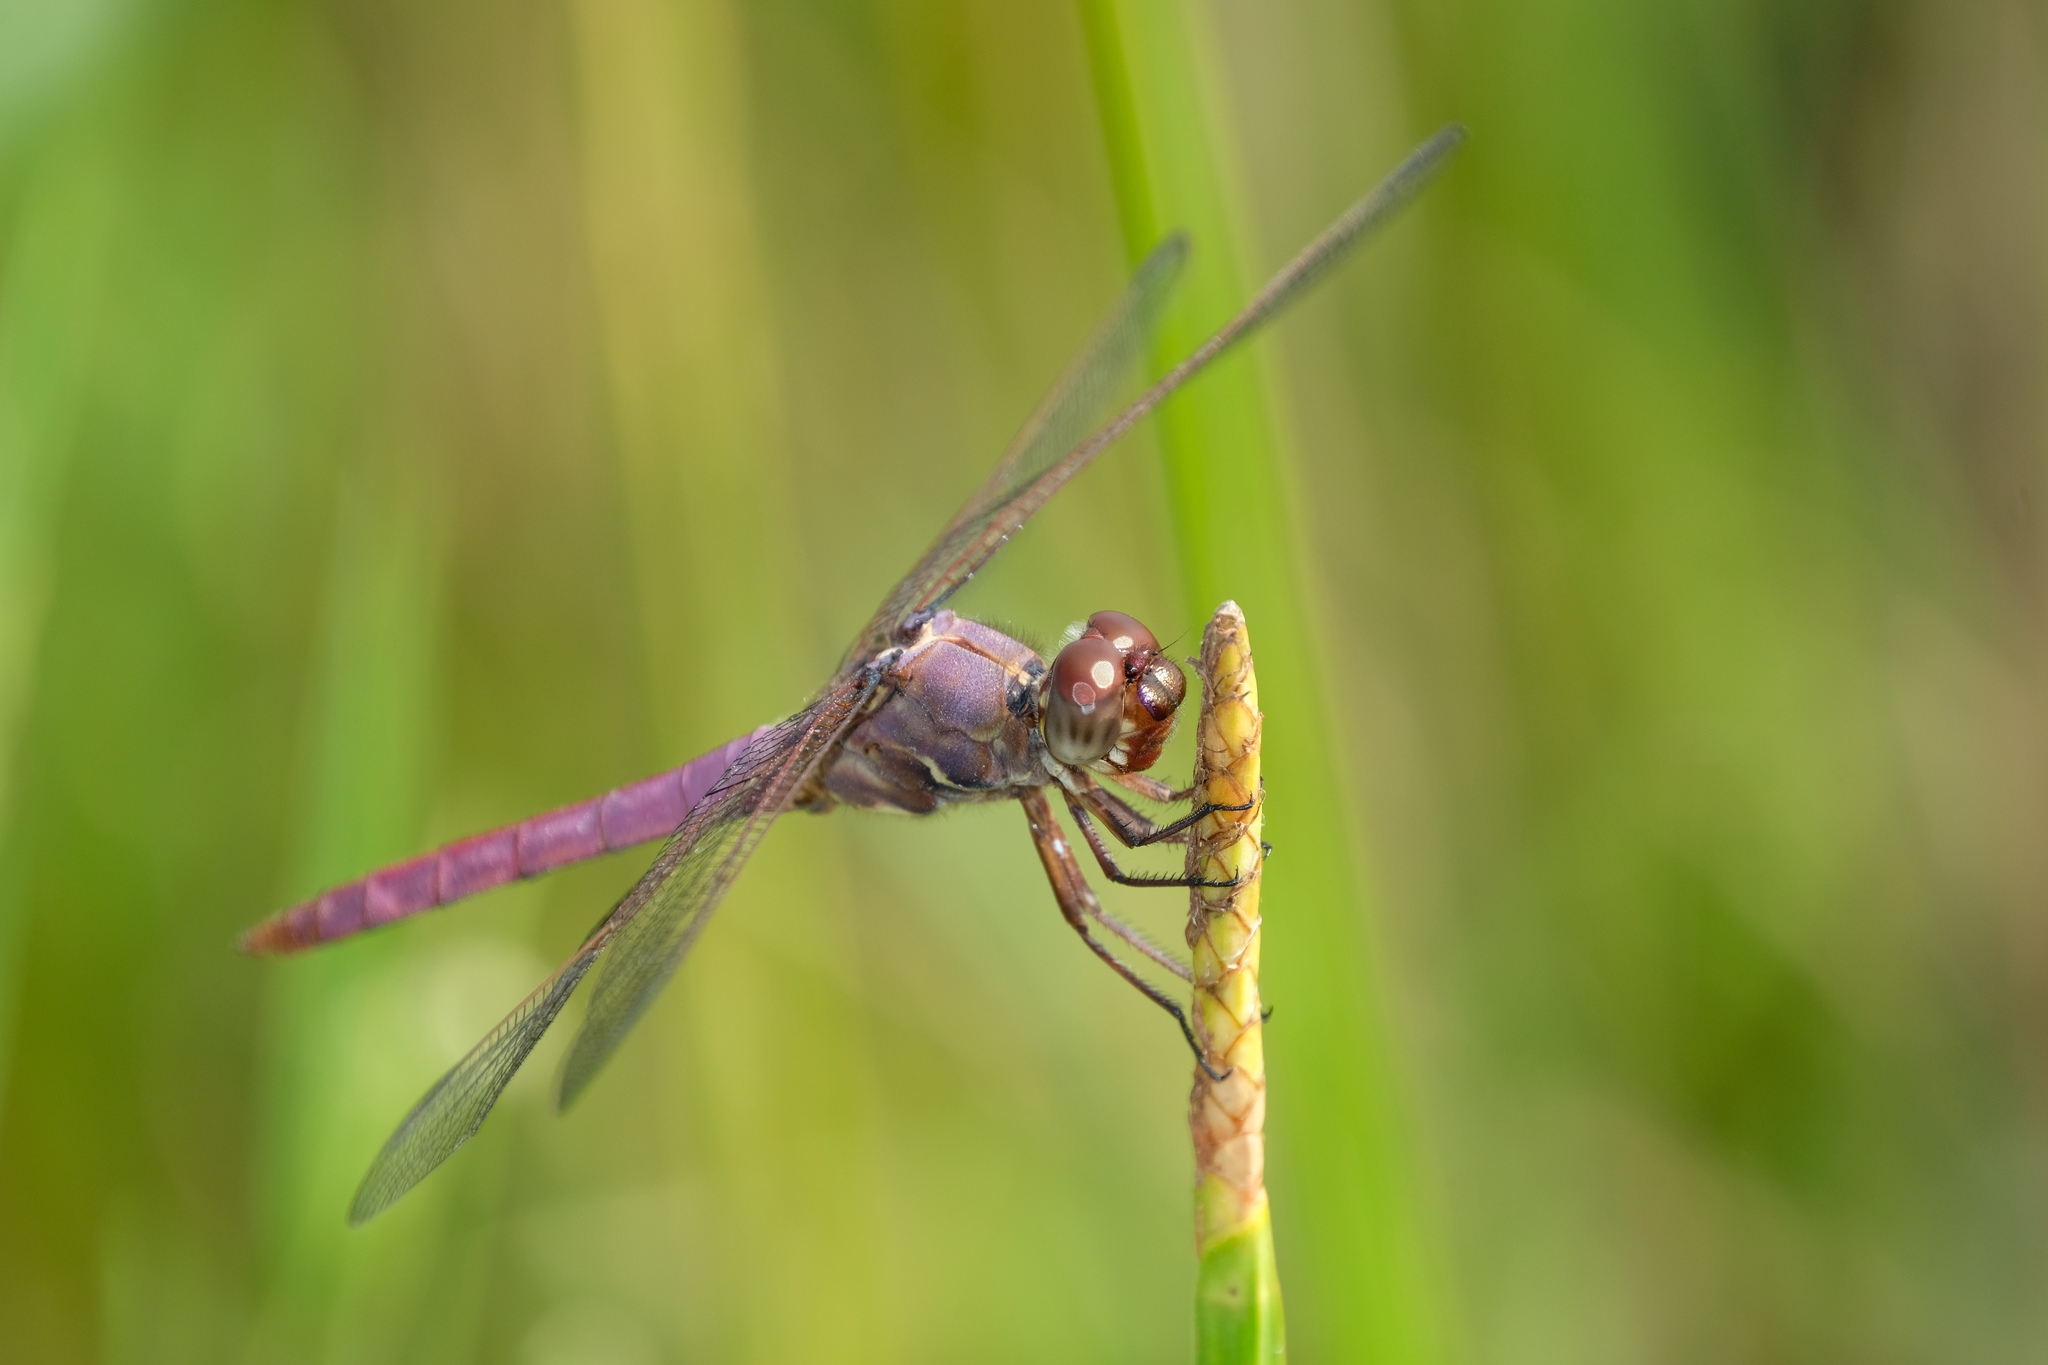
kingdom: Animalia
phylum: Arthropoda
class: Insecta
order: Odonata
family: Libellulidae
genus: Orthemis
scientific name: Orthemis ferruginea
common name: Roseate skimmer
